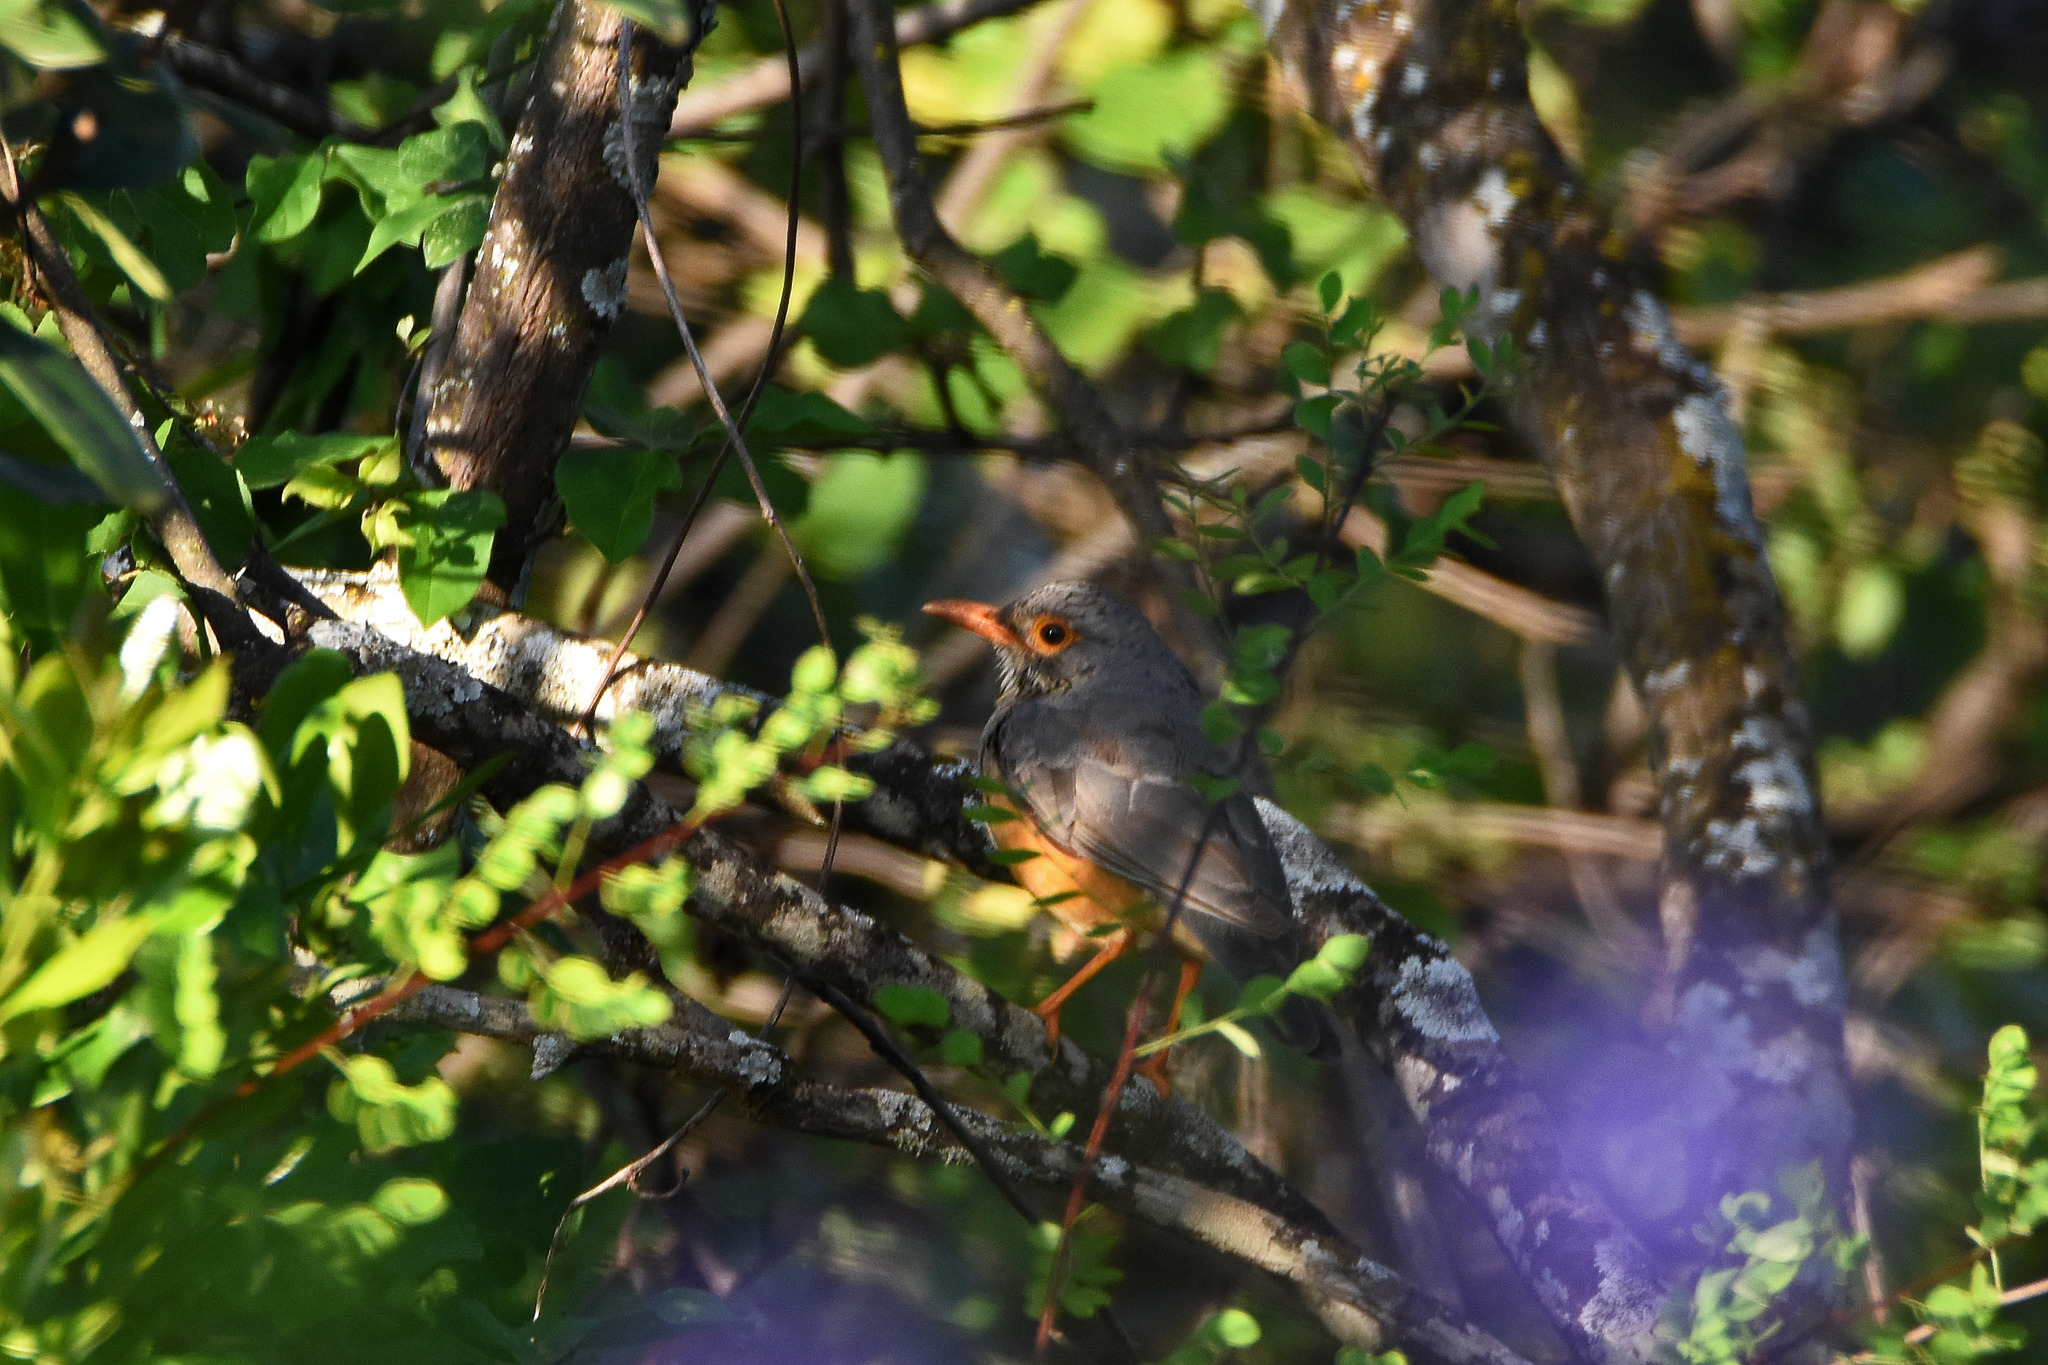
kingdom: Animalia
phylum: Chordata
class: Aves
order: Passeriformes
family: Turdidae
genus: Turdus
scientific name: Turdus tephronotus
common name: African bare-eyed thrush
